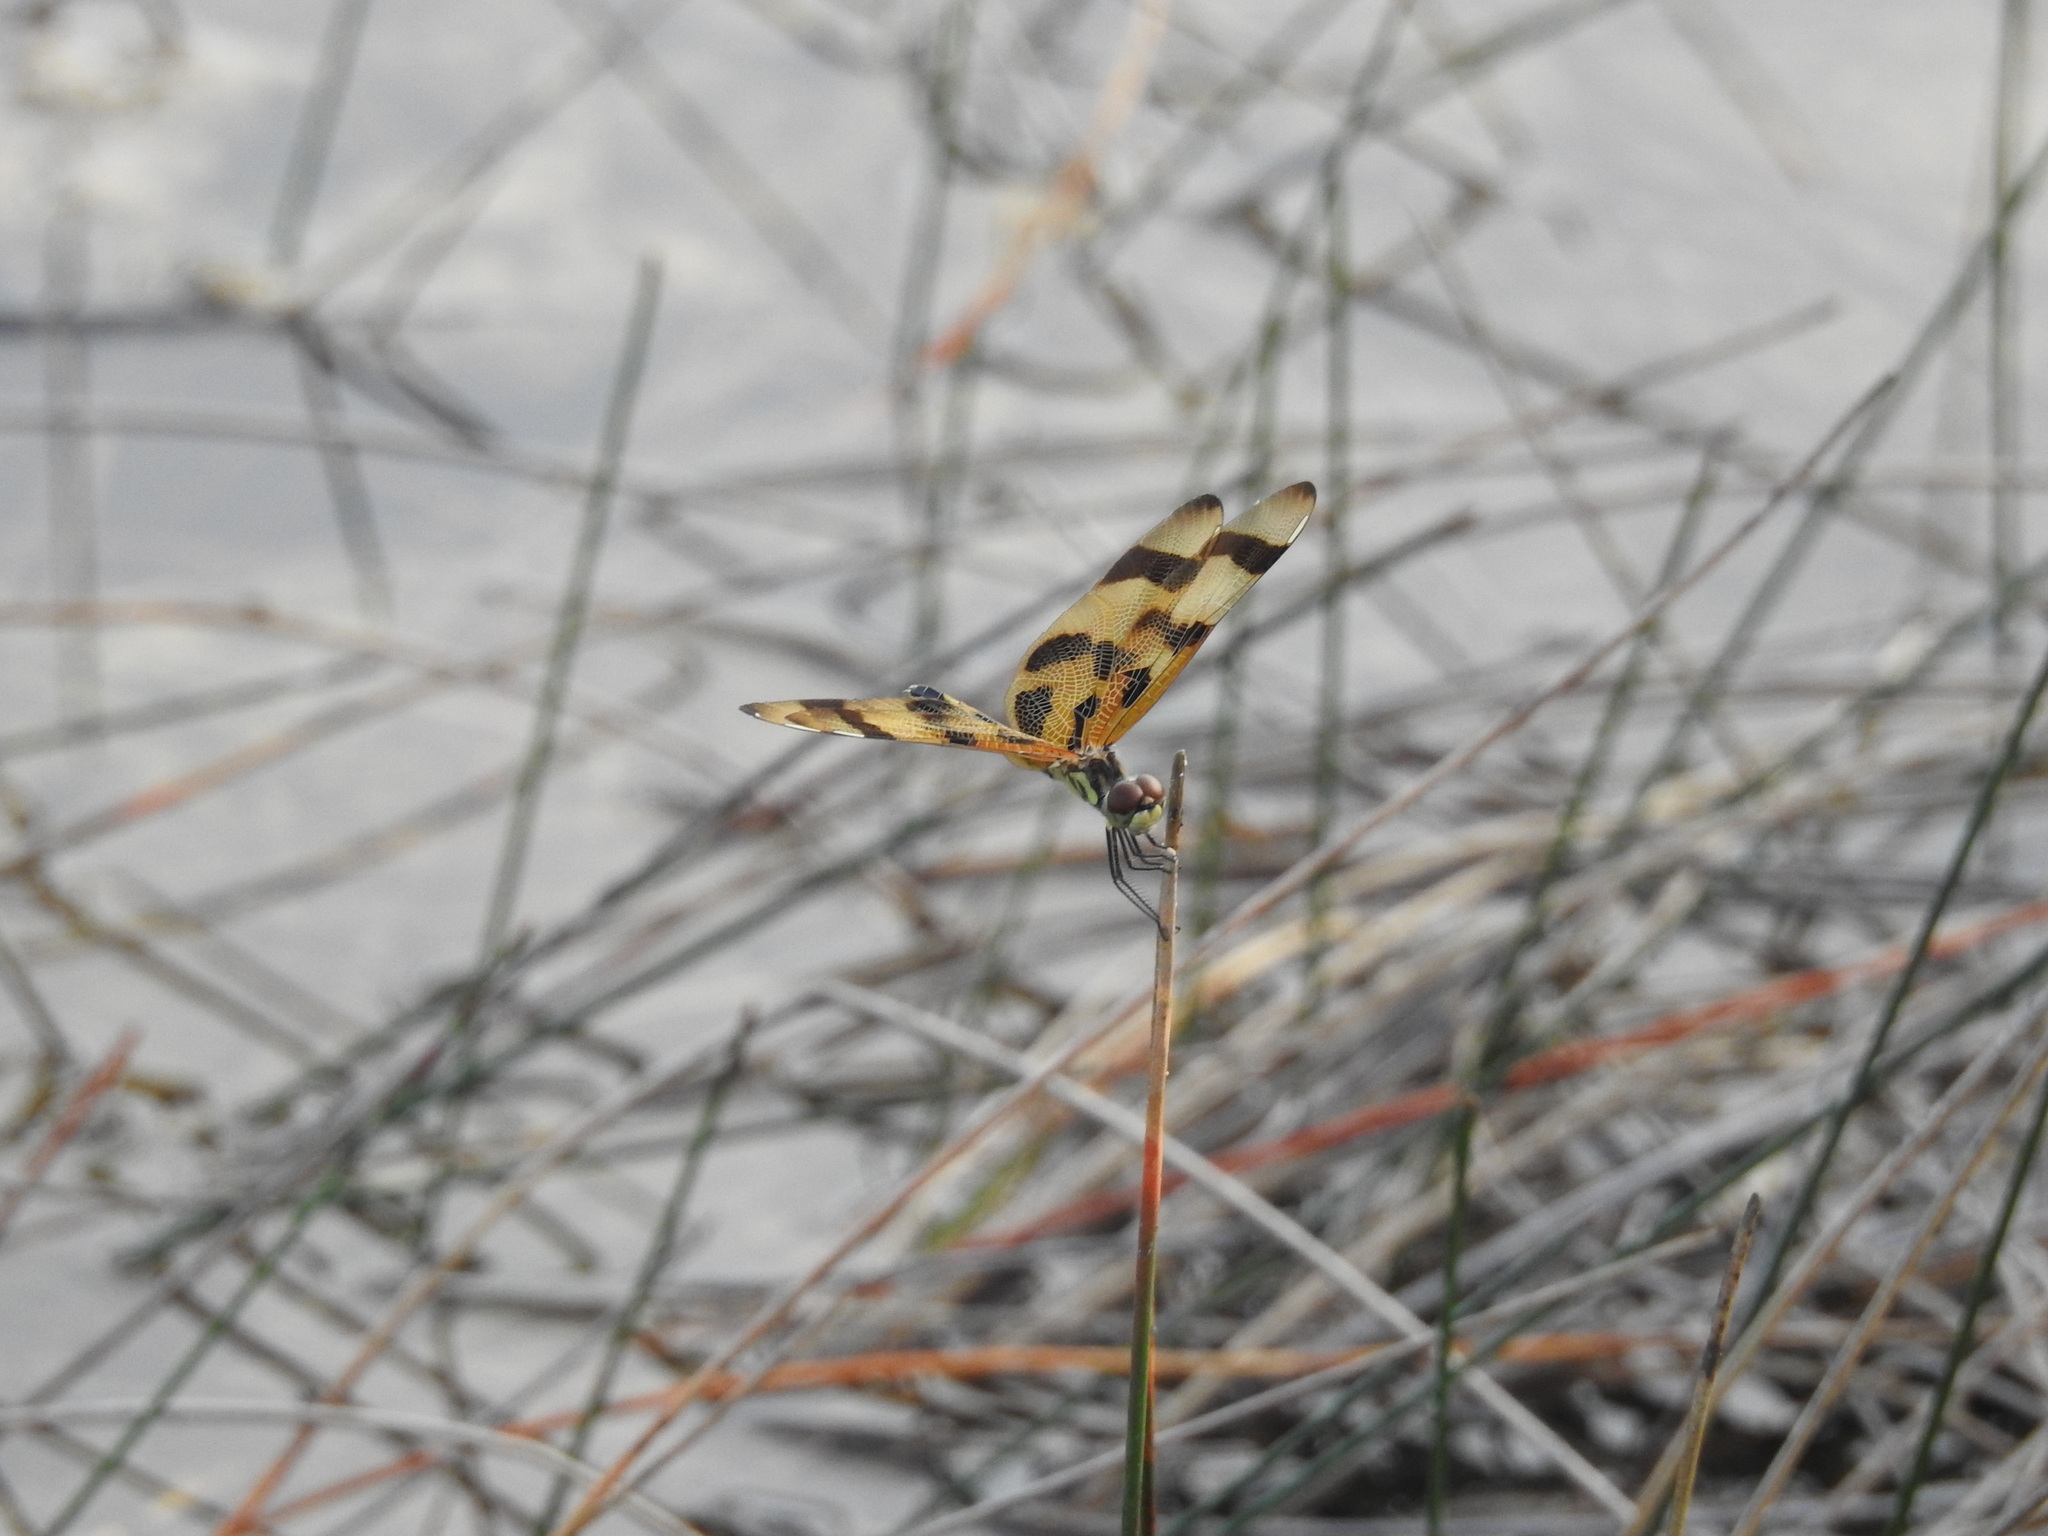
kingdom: Animalia
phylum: Arthropoda
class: Insecta
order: Odonata
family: Libellulidae
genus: Celithemis
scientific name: Celithemis eponina
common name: Halloween pennant
